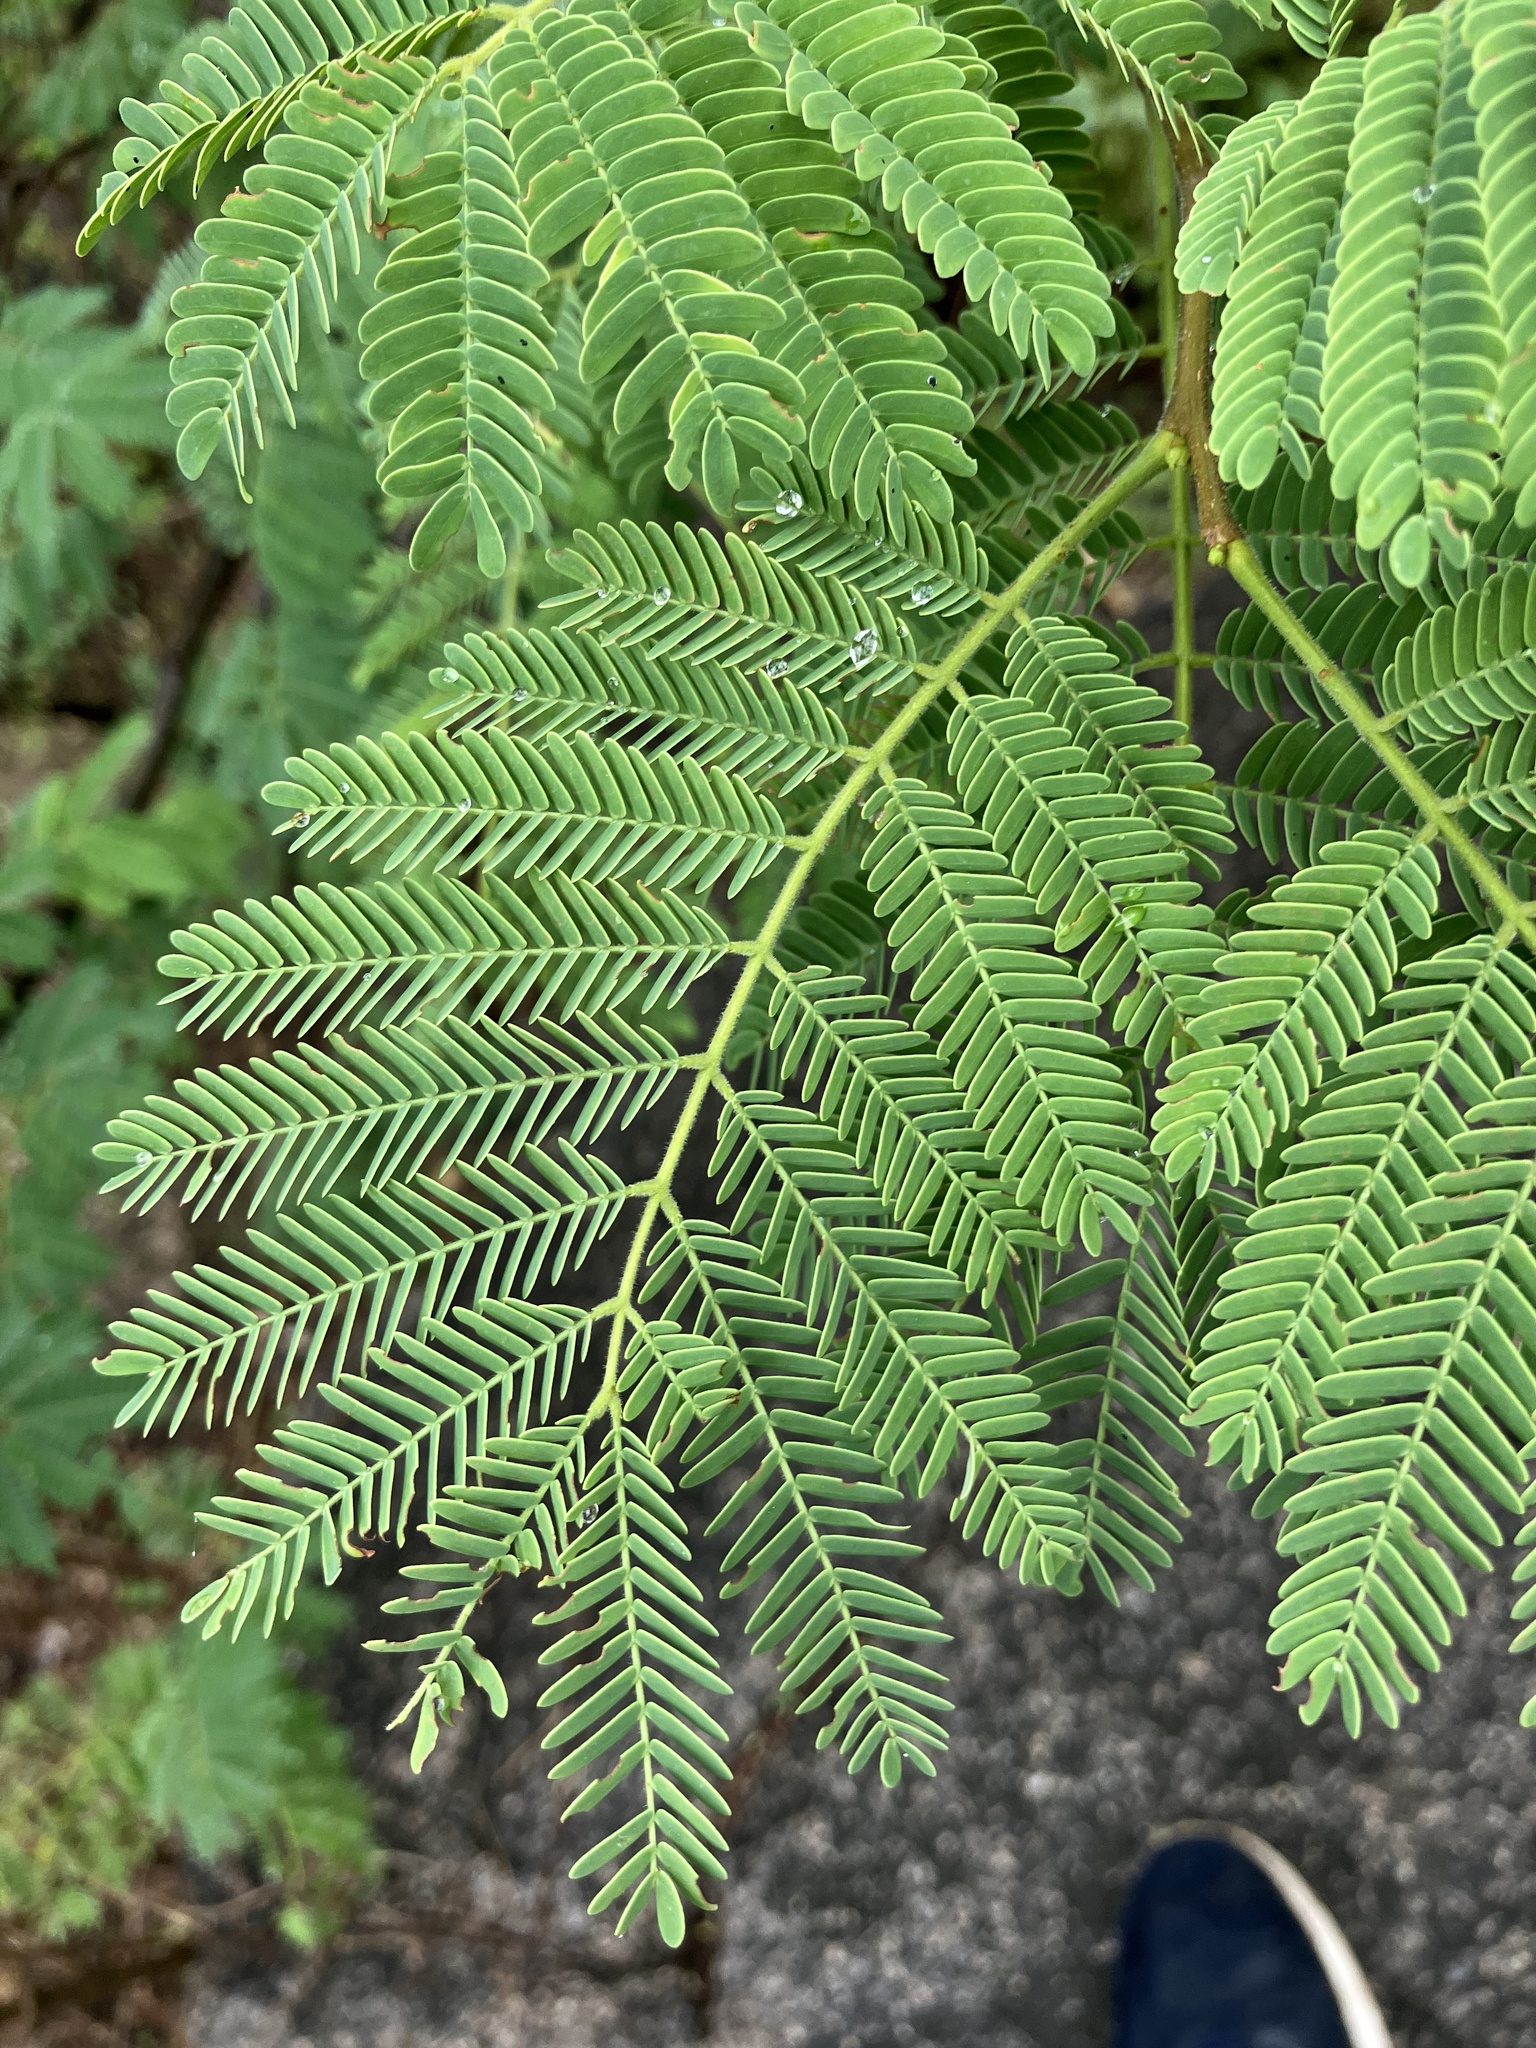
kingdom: Plantae
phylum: Tracheophyta
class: Magnoliopsida
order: Fabales
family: Fabaceae
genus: Albizia
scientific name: Albizia amara
